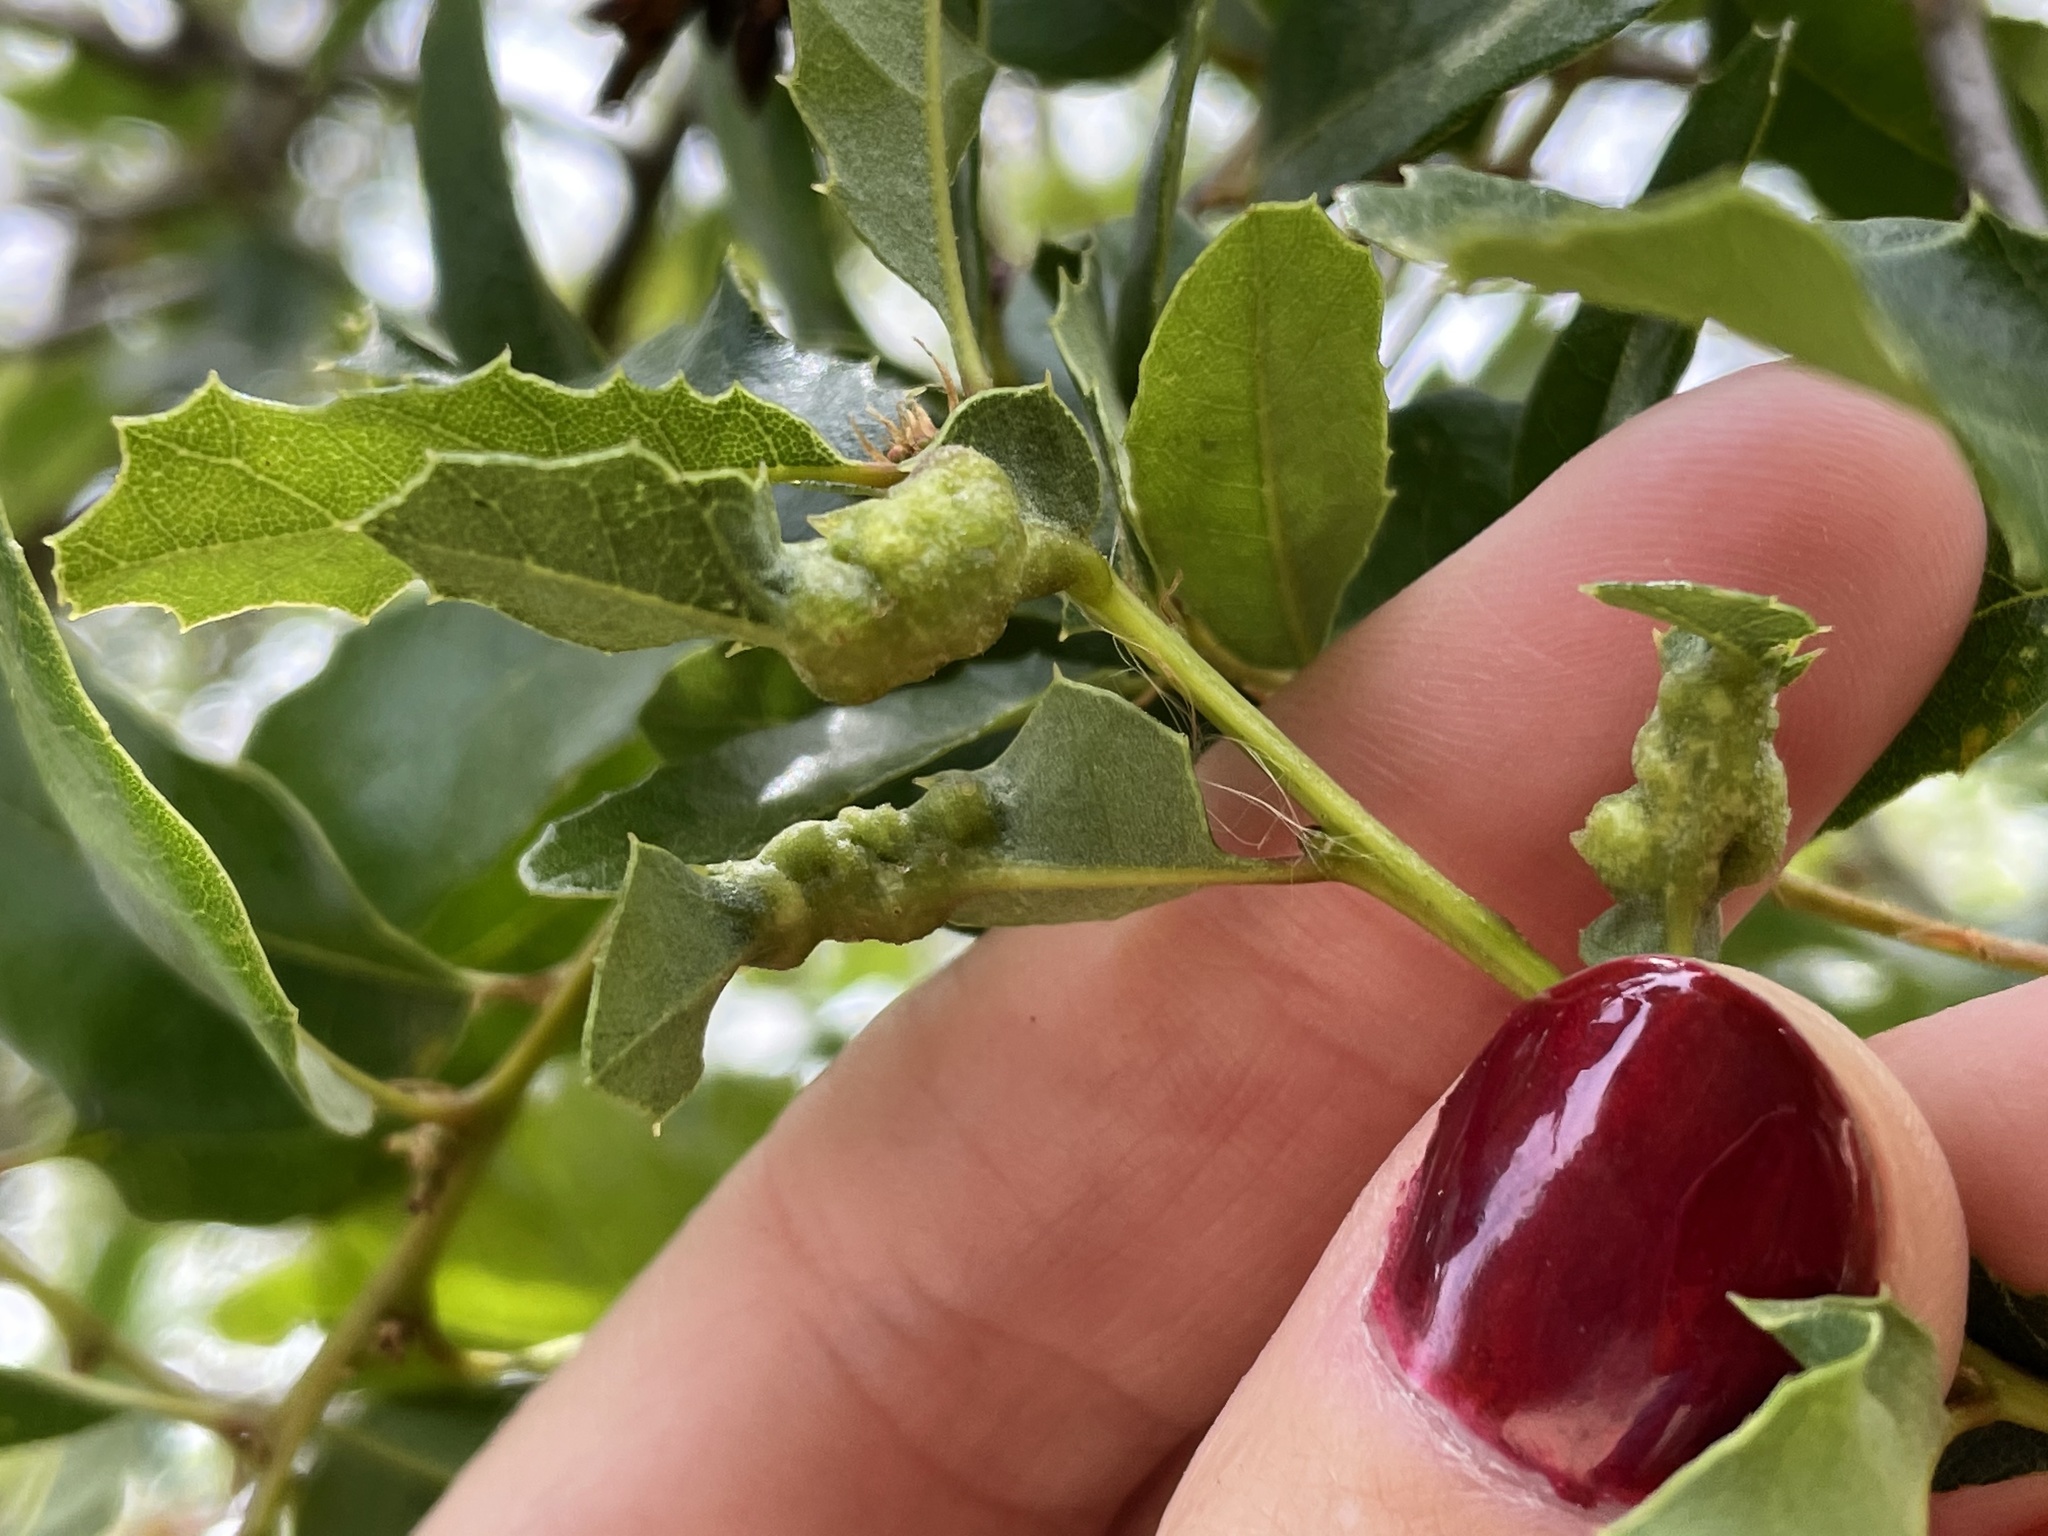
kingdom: Animalia
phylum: Arthropoda
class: Insecta
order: Hymenoptera
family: Cynipidae
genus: Neuroterus
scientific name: Neuroterus
